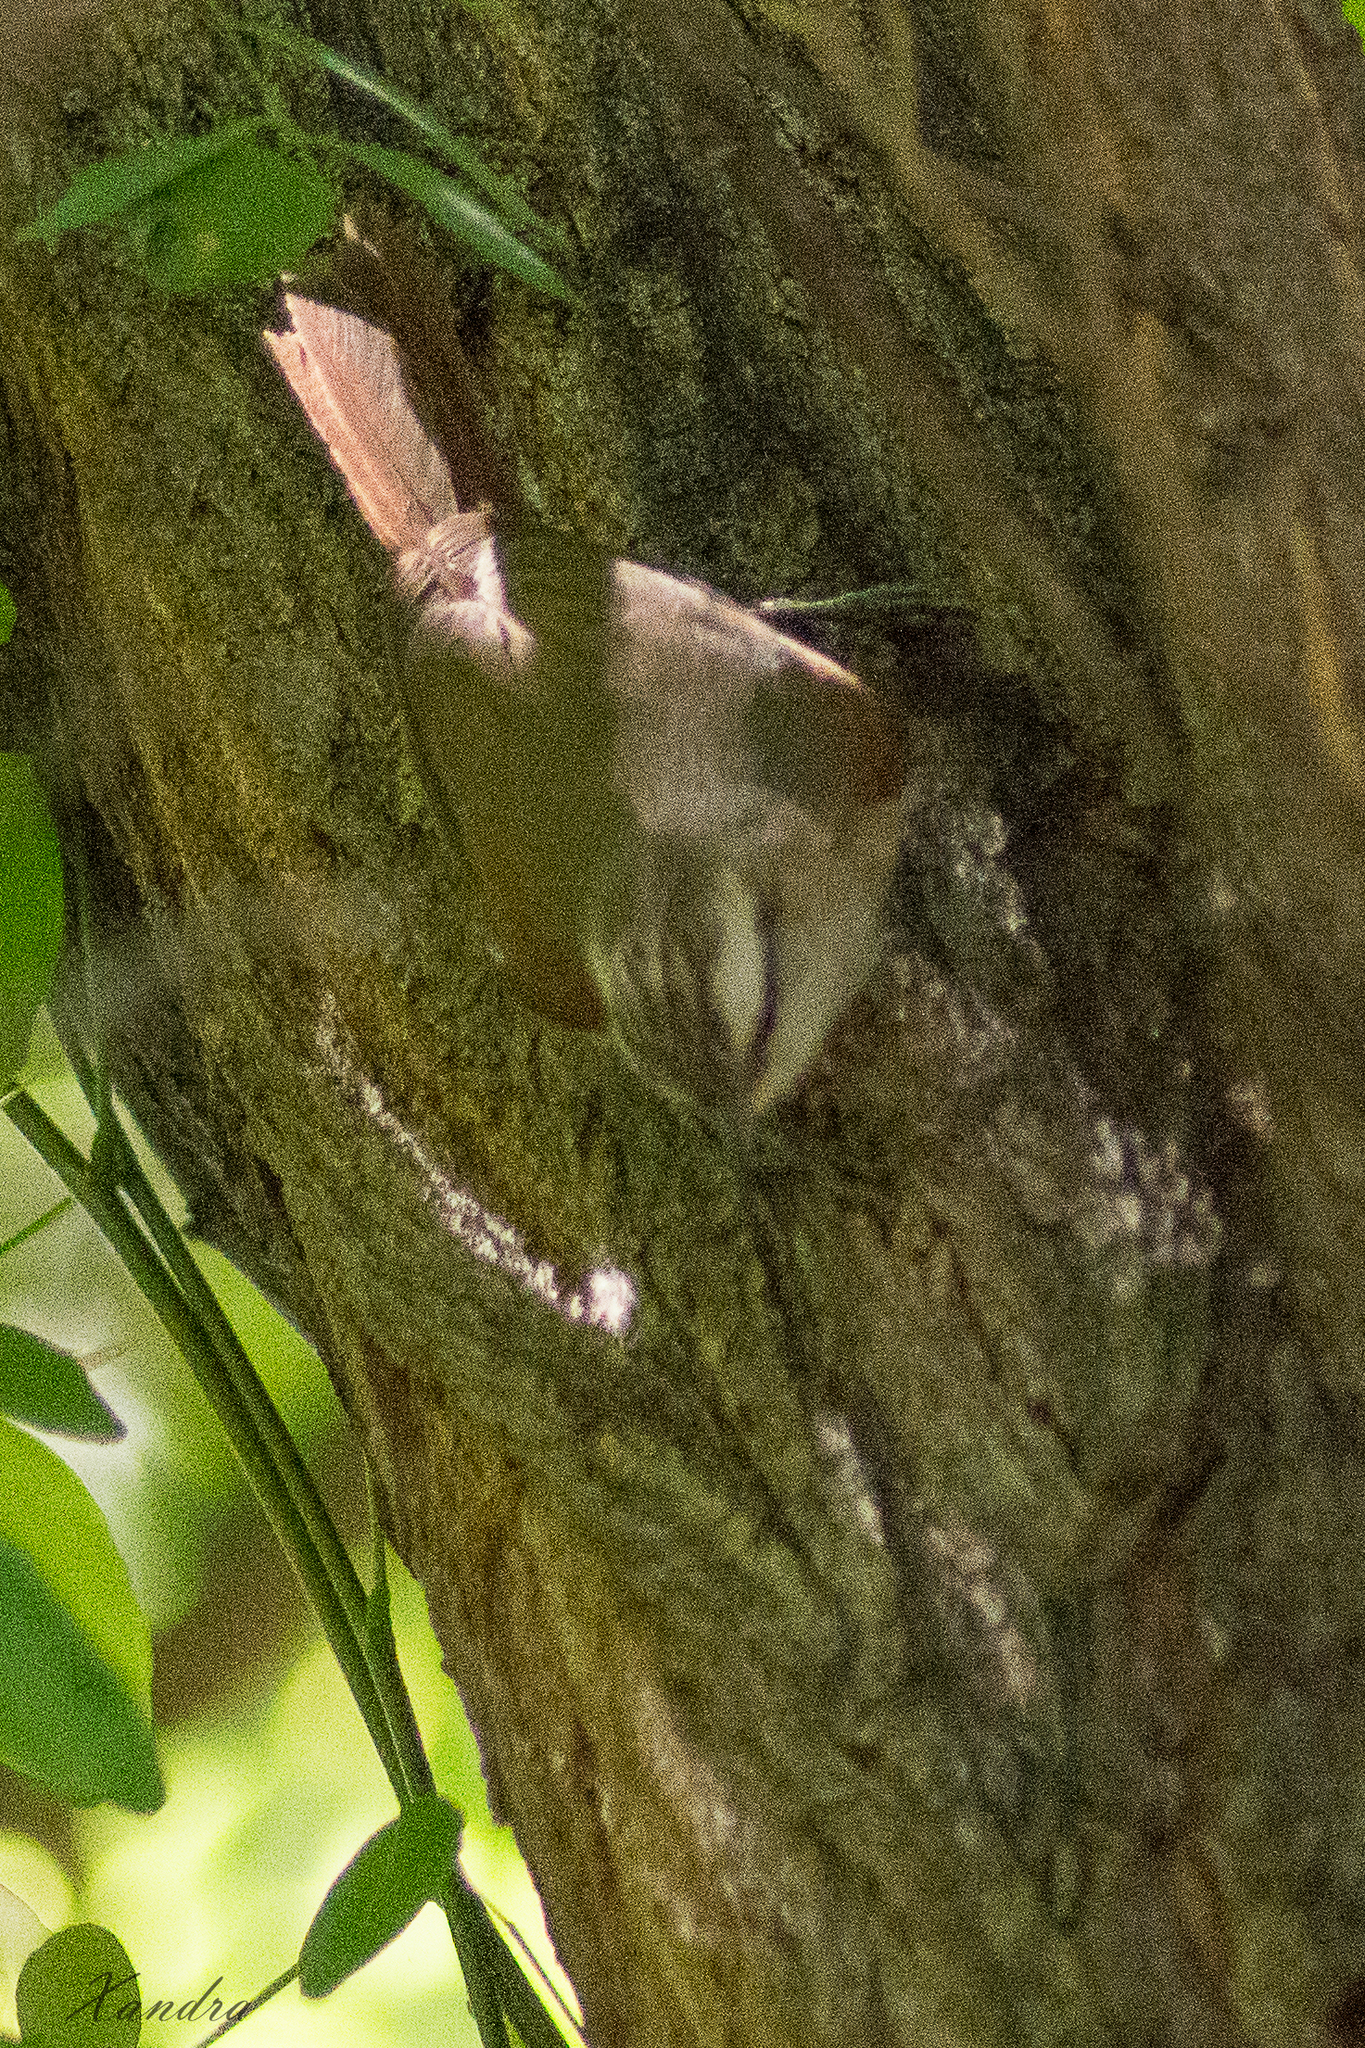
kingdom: Animalia
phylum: Chordata
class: Aves
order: Passeriformes
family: Furnariidae
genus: Cranioleuca
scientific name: Cranioleuca pyrrhophia
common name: Stripe-crowned spinetail
